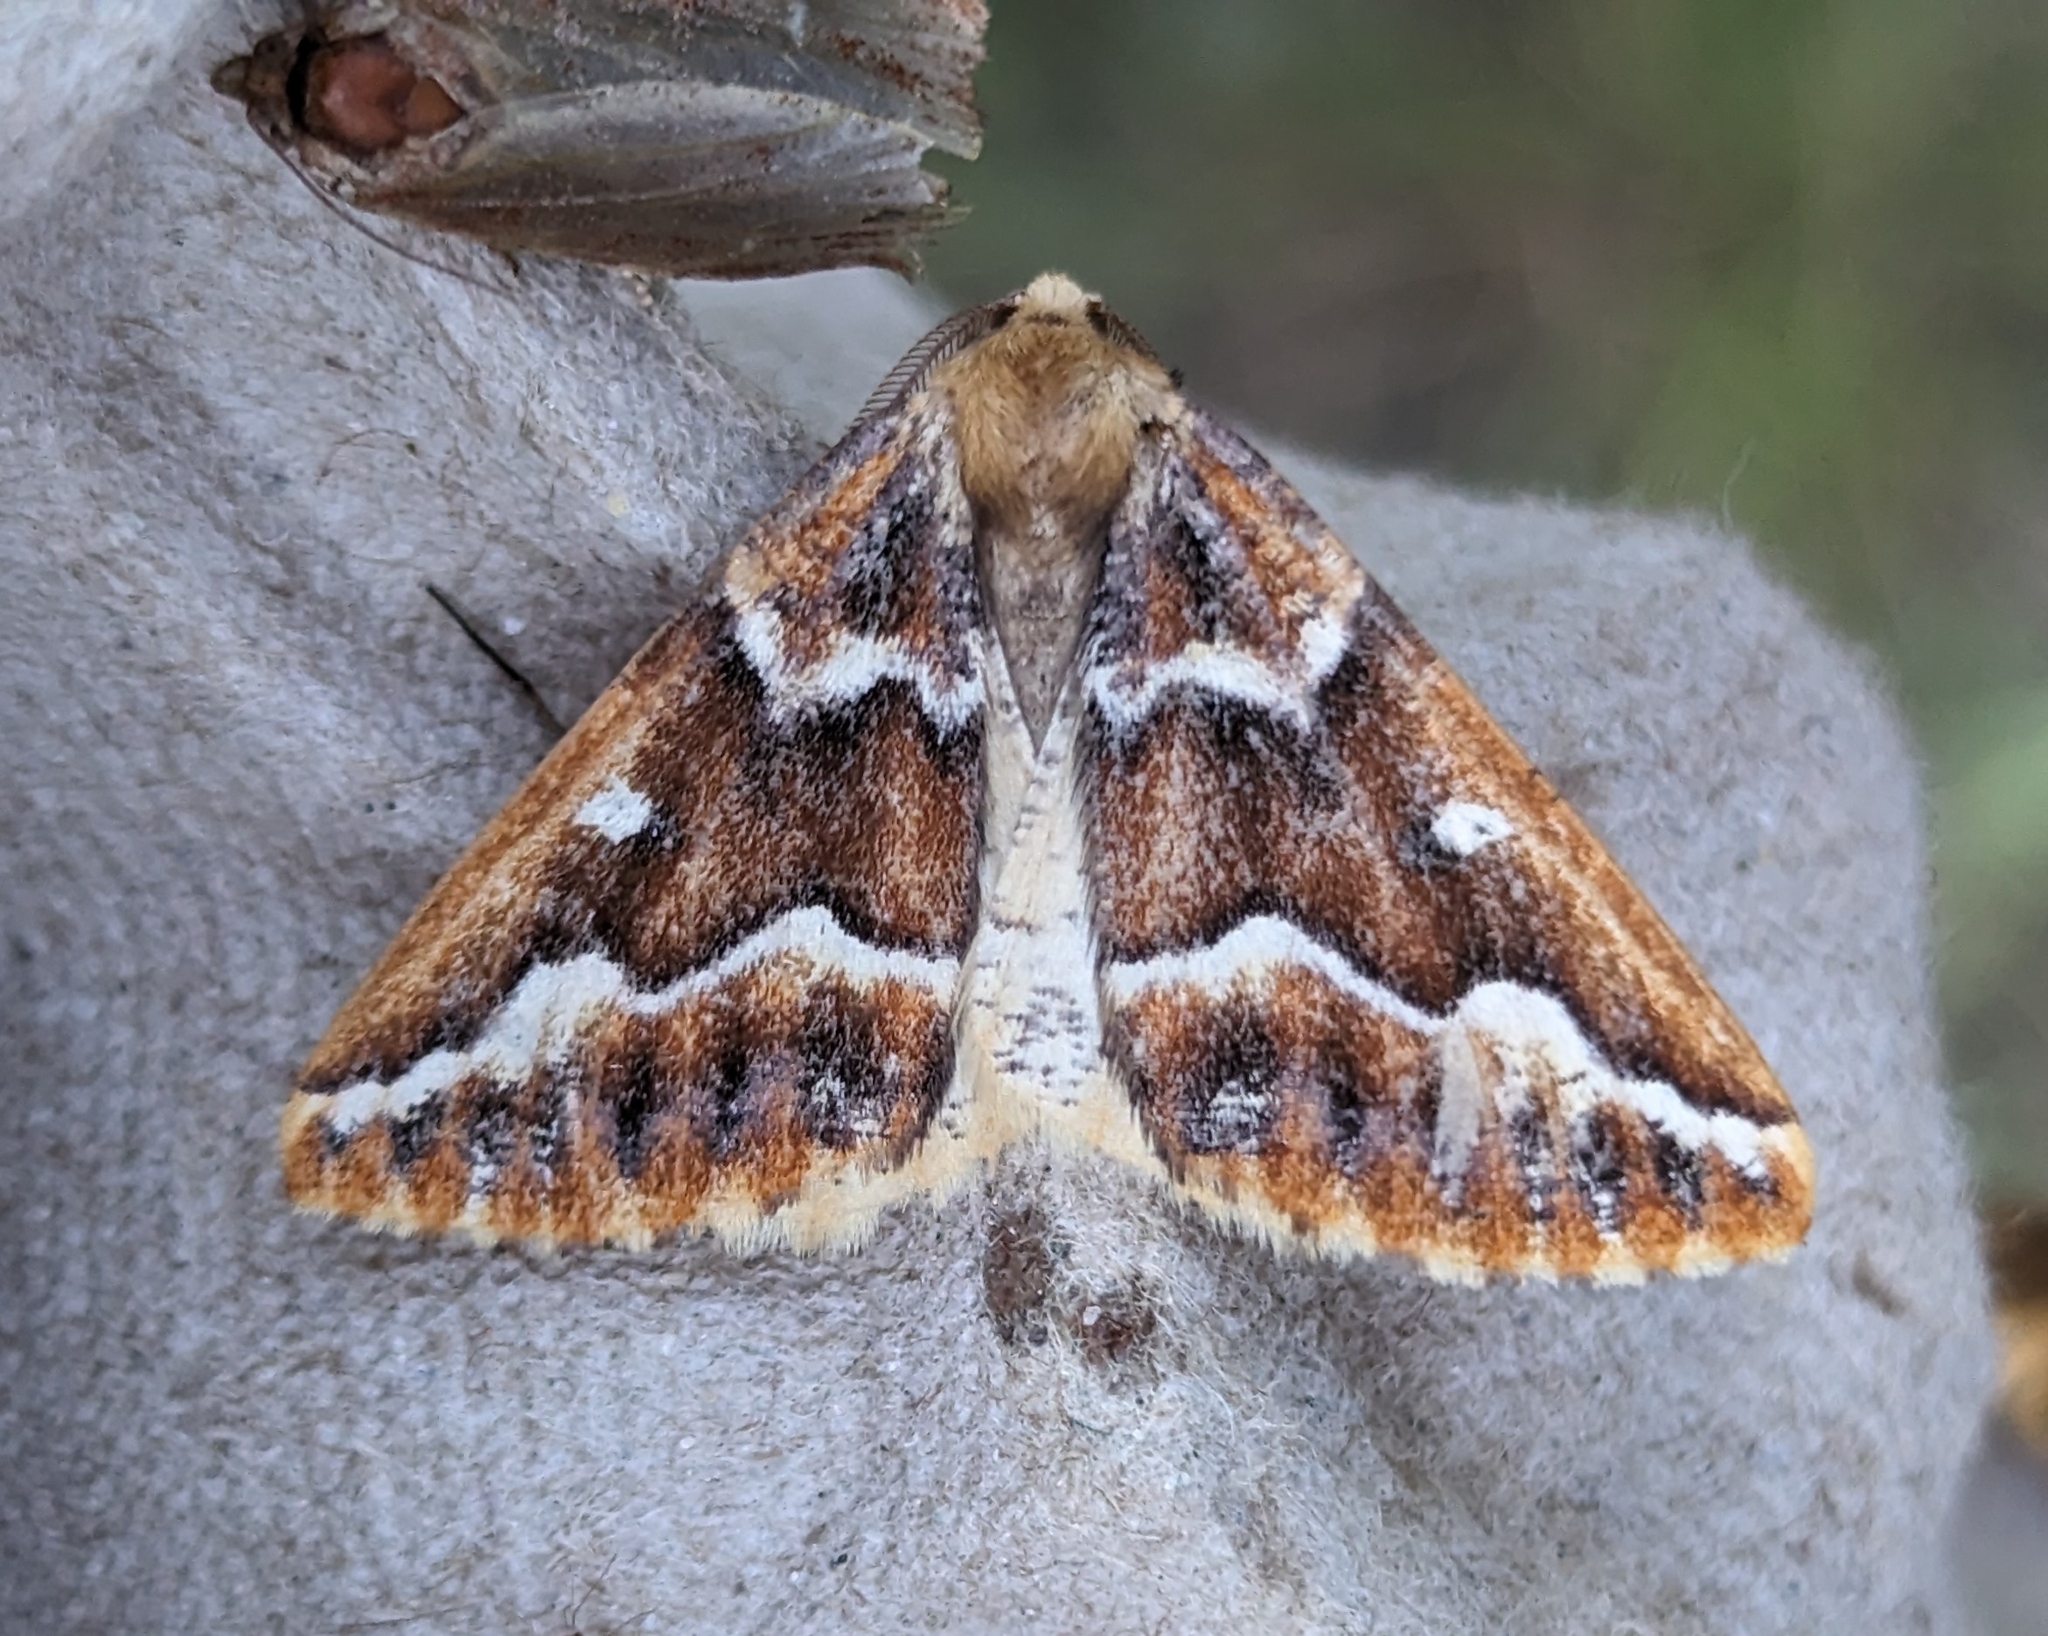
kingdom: Animalia
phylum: Arthropoda
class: Insecta
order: Lepidoptera
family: Geometridae
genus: Caripeta
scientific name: Caripeta aequaliaria
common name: Red girdle moth
